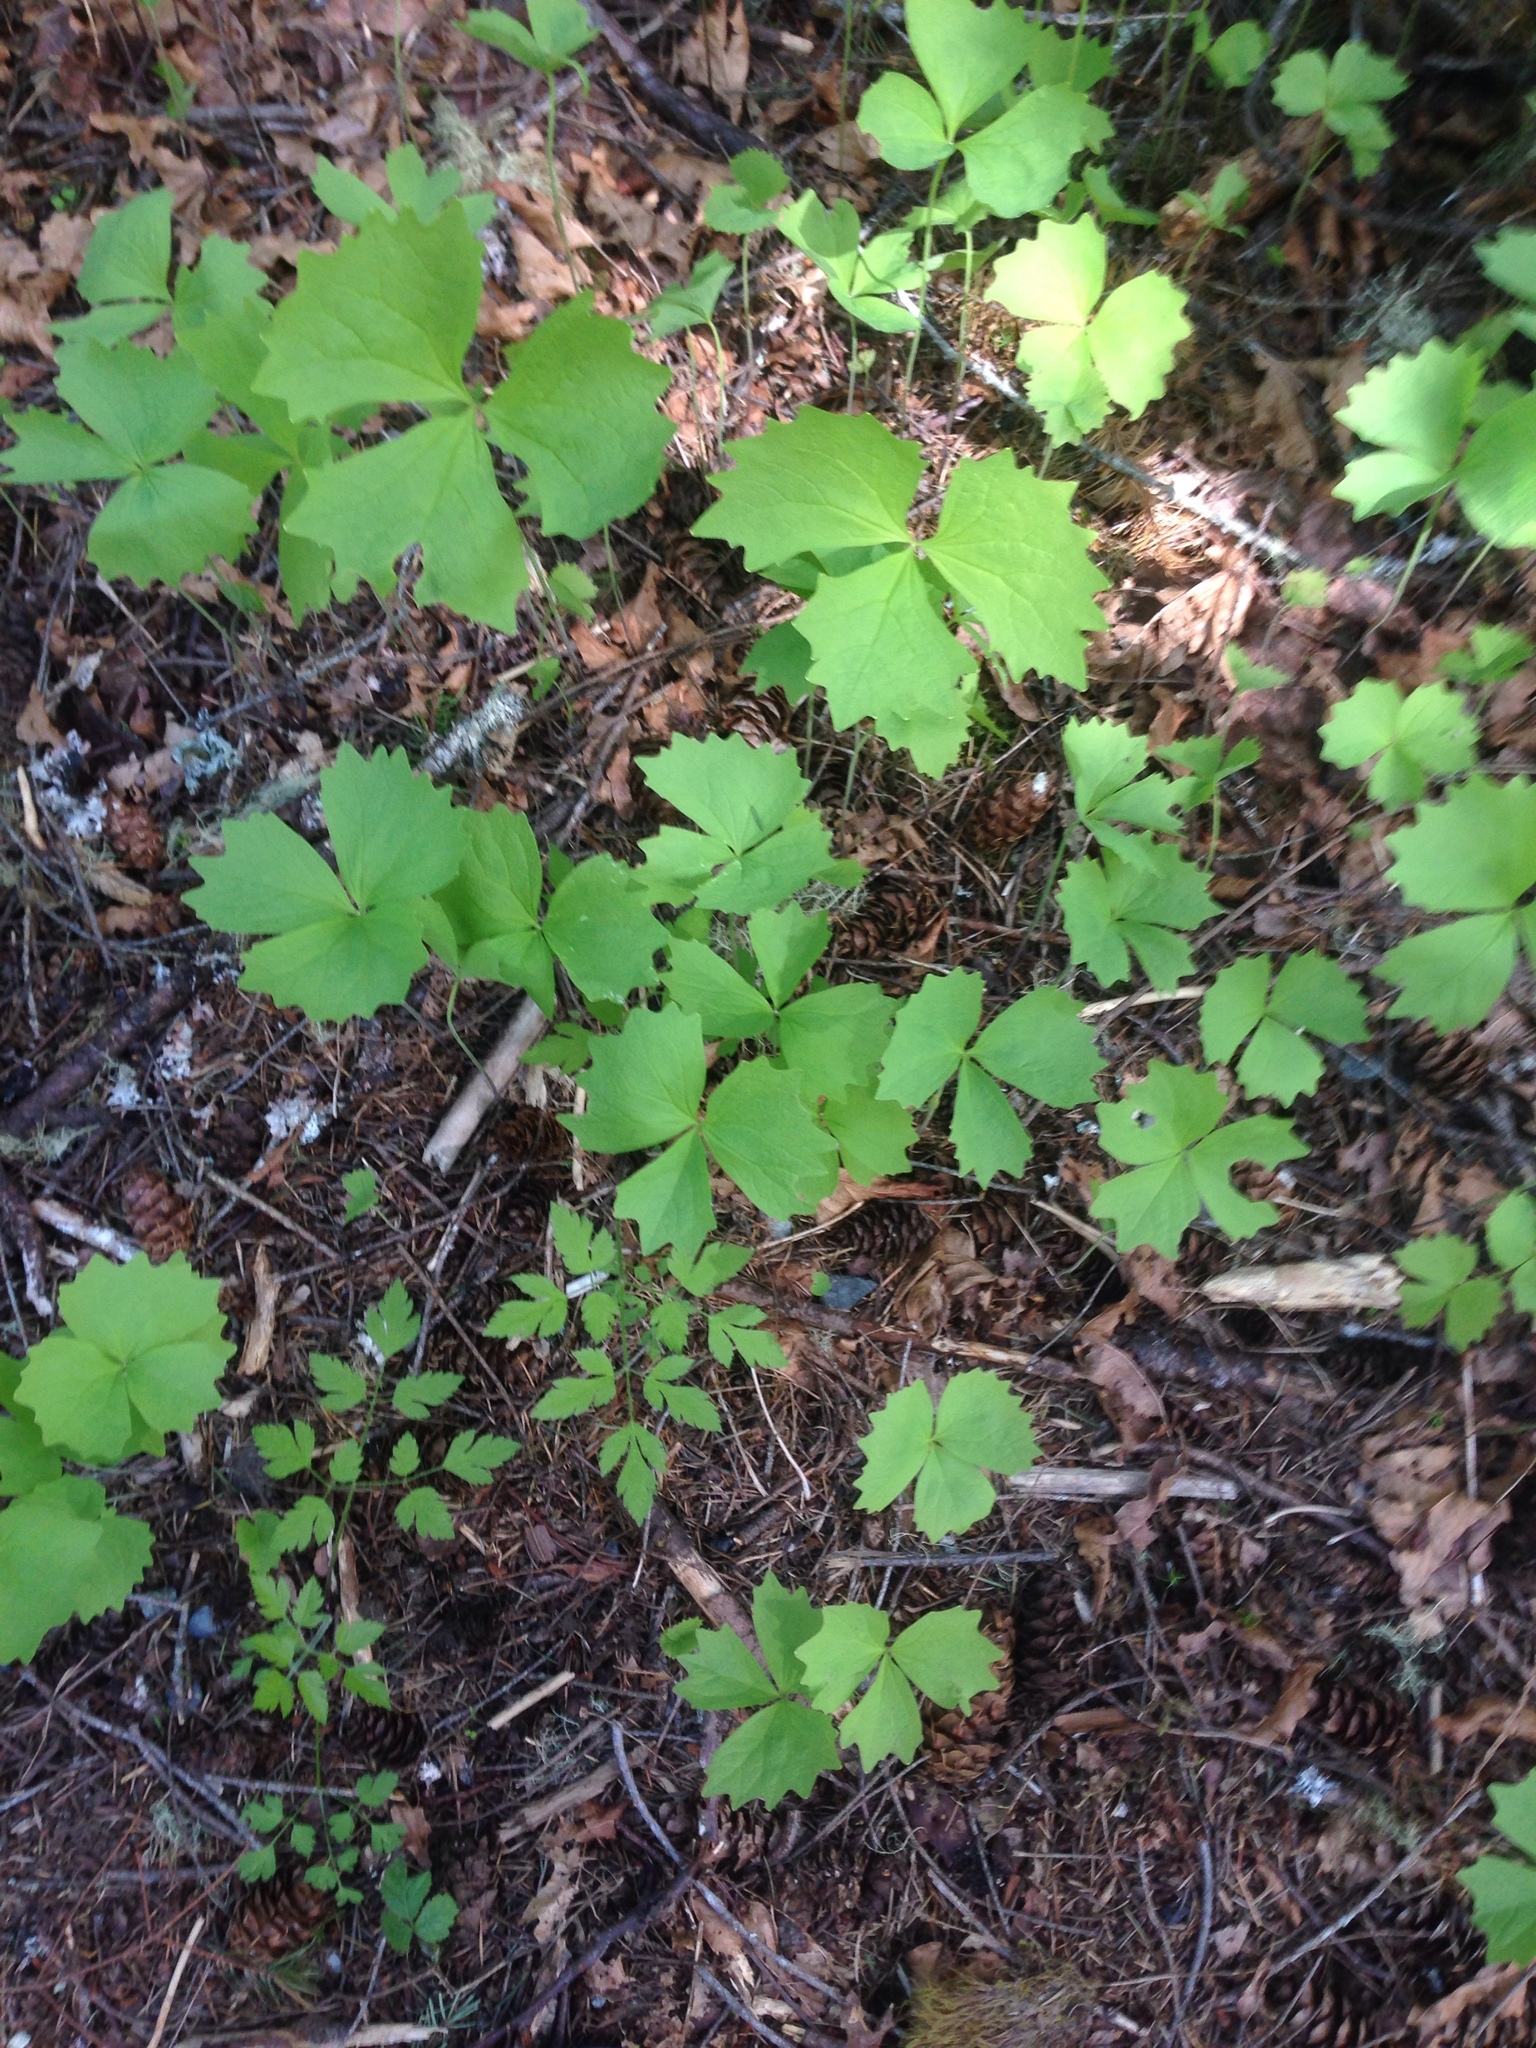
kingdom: Plantae
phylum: Tracheophyta
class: Magnoliopsida
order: Ranunculales
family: Berberidaceae
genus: Achlys
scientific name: Achlys triphylla
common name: Vanilla-leaf
